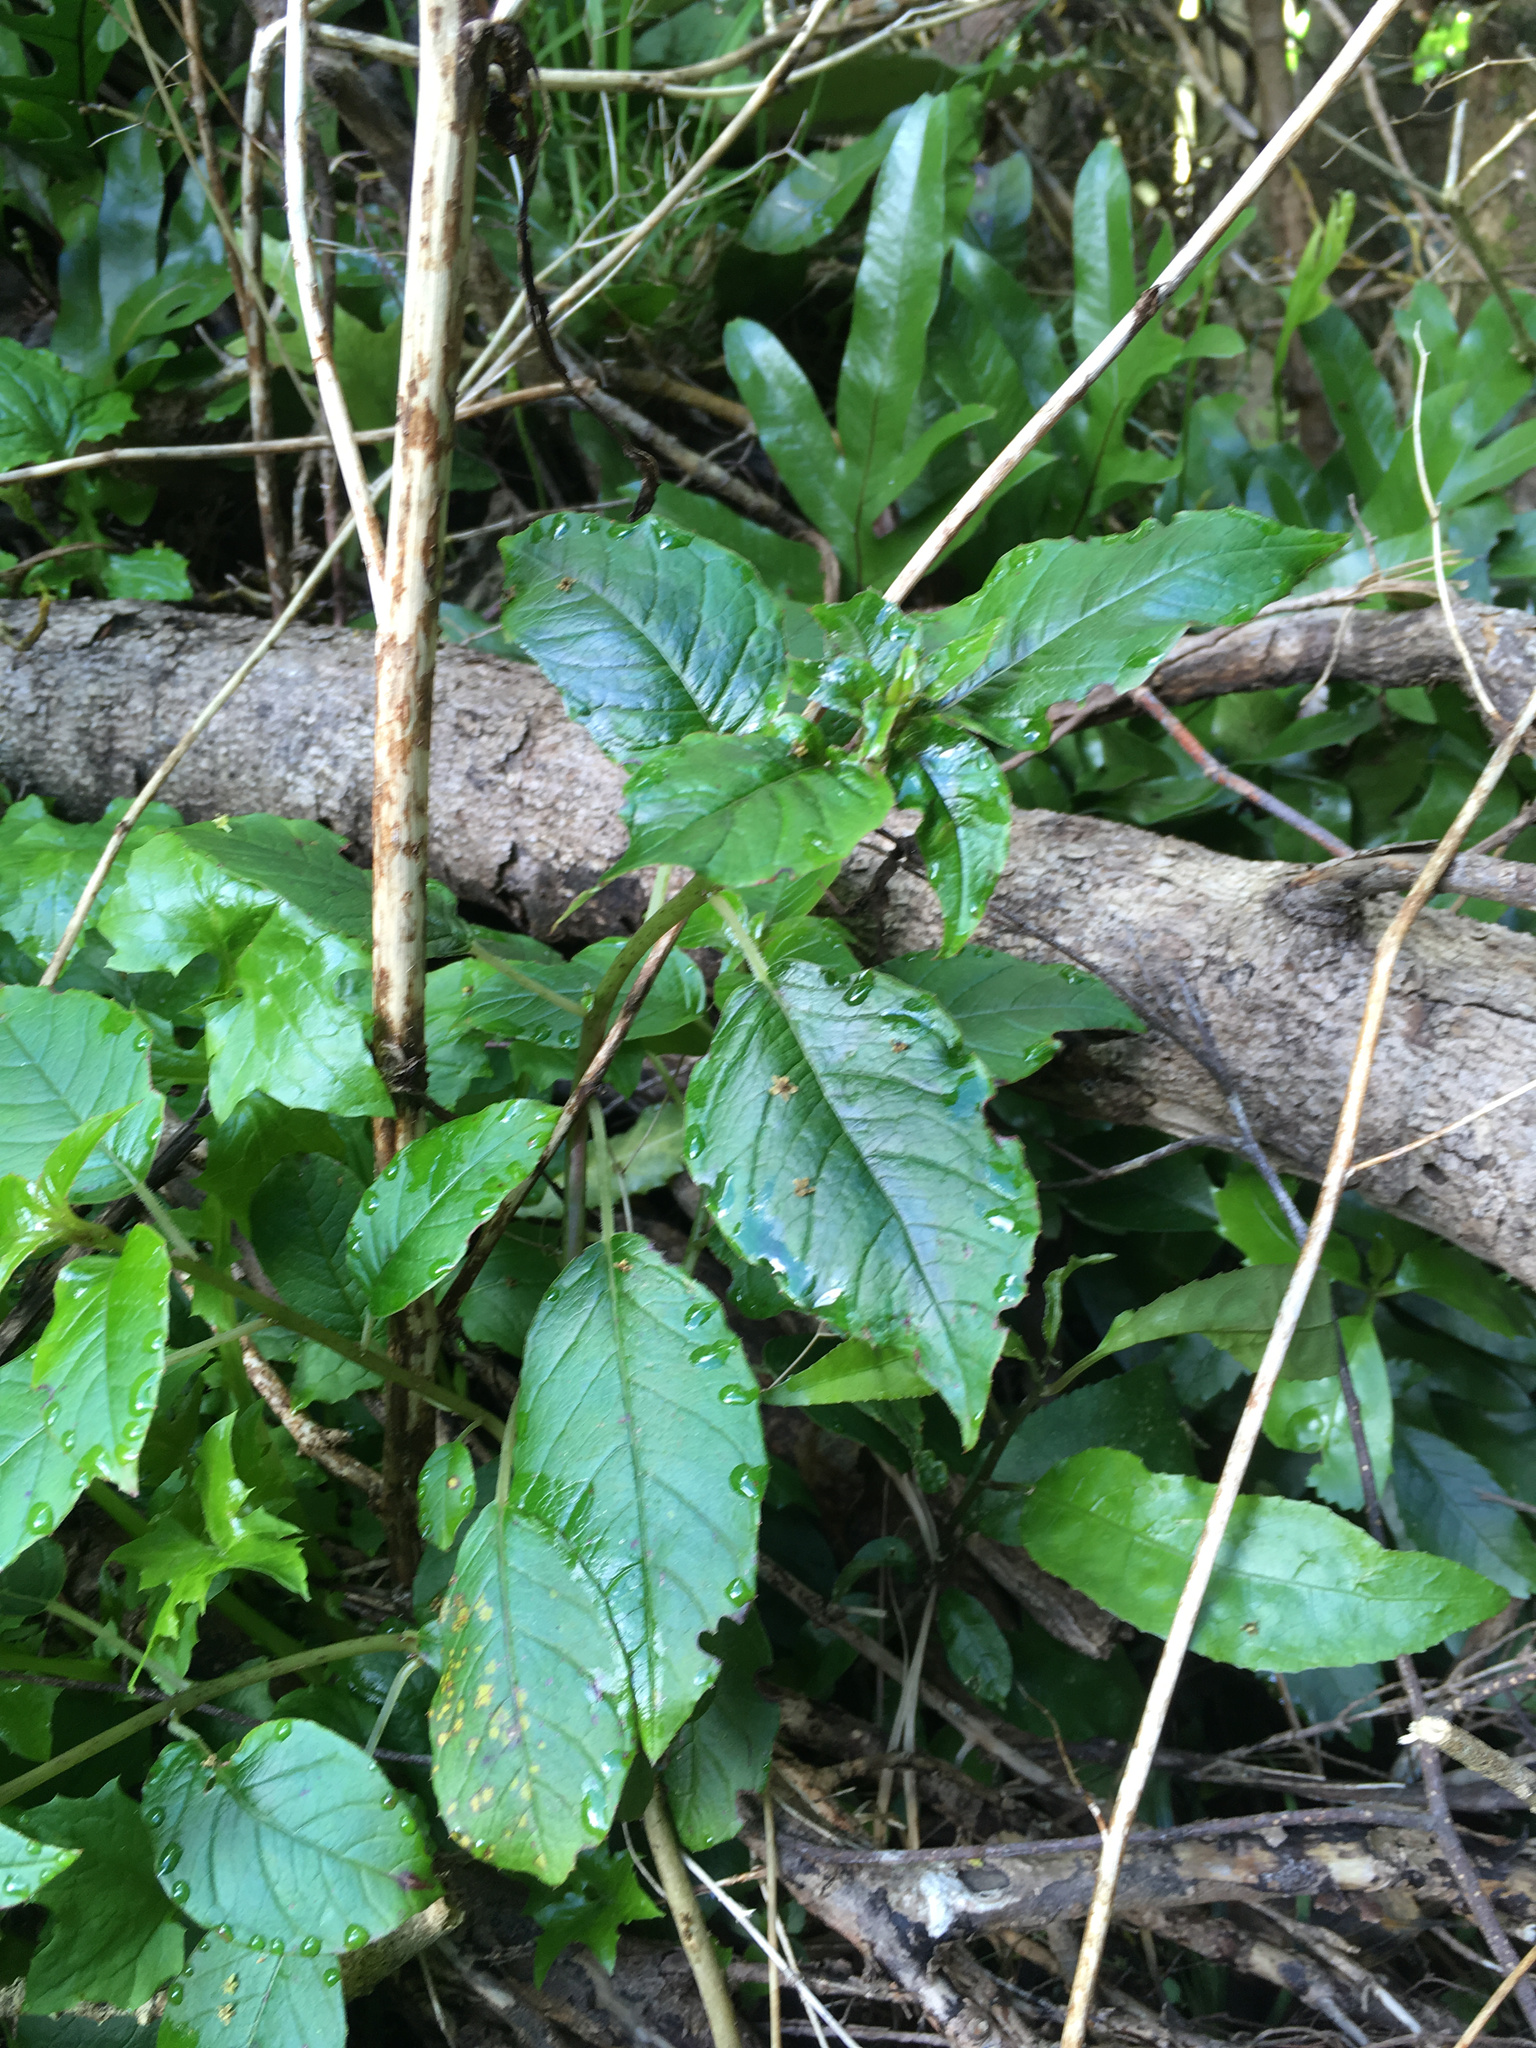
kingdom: Plantae
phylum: Tracheophyta
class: Magnoliopsida
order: Myrtales
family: Onagraceae
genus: Fuchsia
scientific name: Fuchsia excorticata
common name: Tree fuchsia
